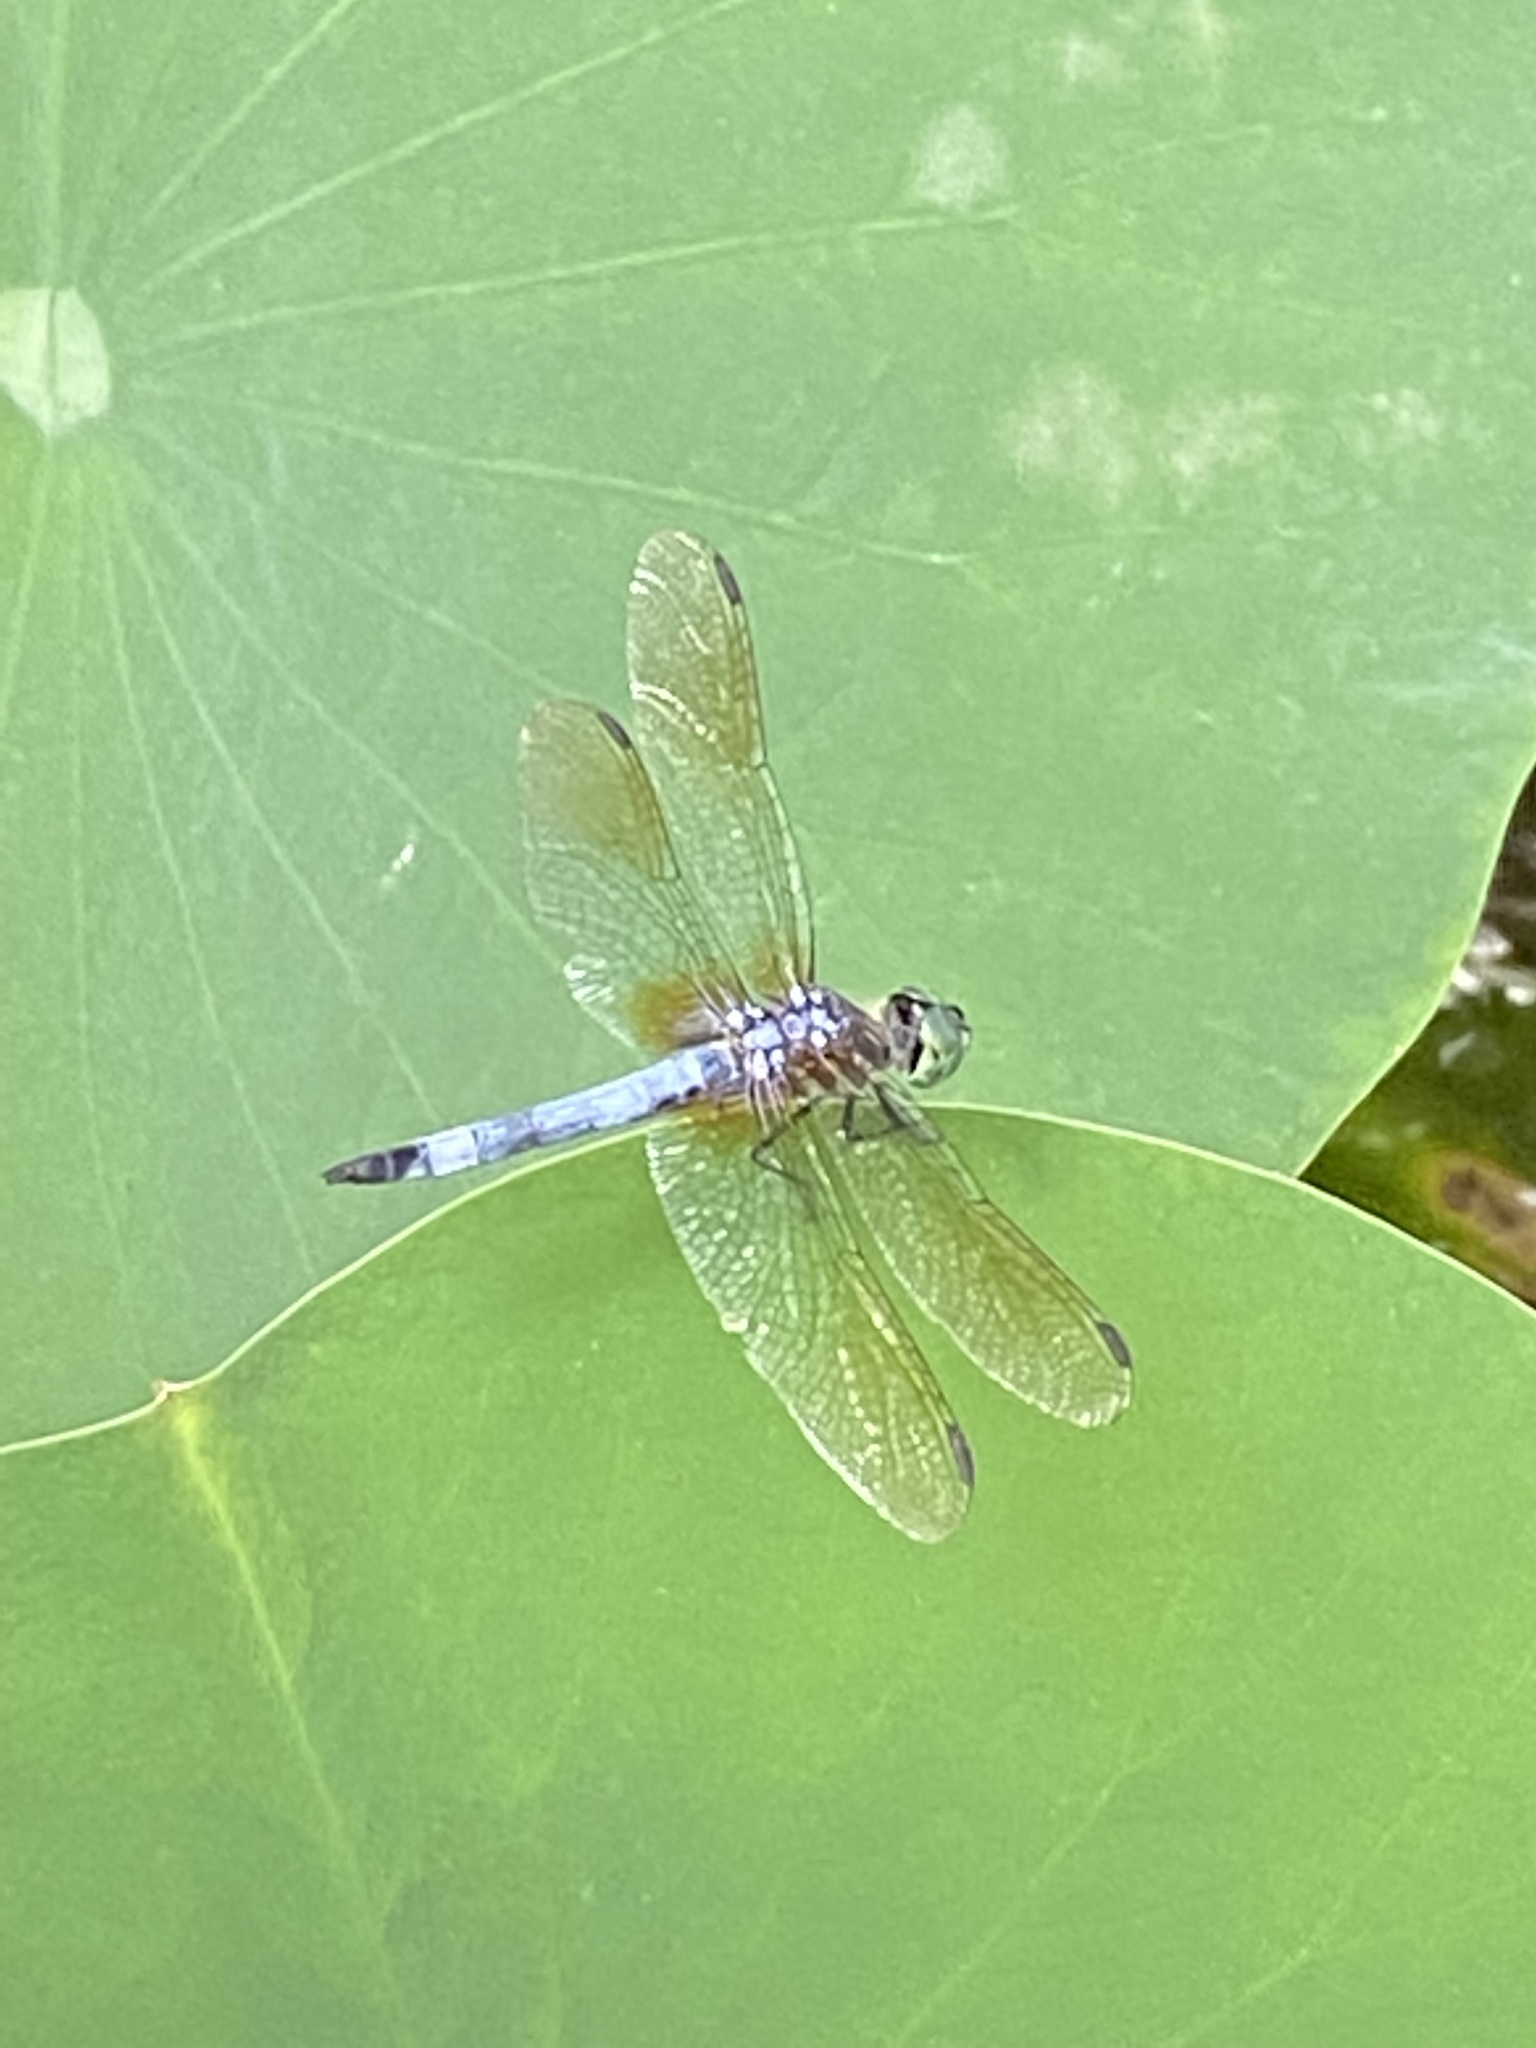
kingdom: Animalia
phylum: Arthropoda
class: Insecta
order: Odonata
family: Libellulidae
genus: Pachydiplax
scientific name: Pachydiplax longipennis
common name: Blue dasher
